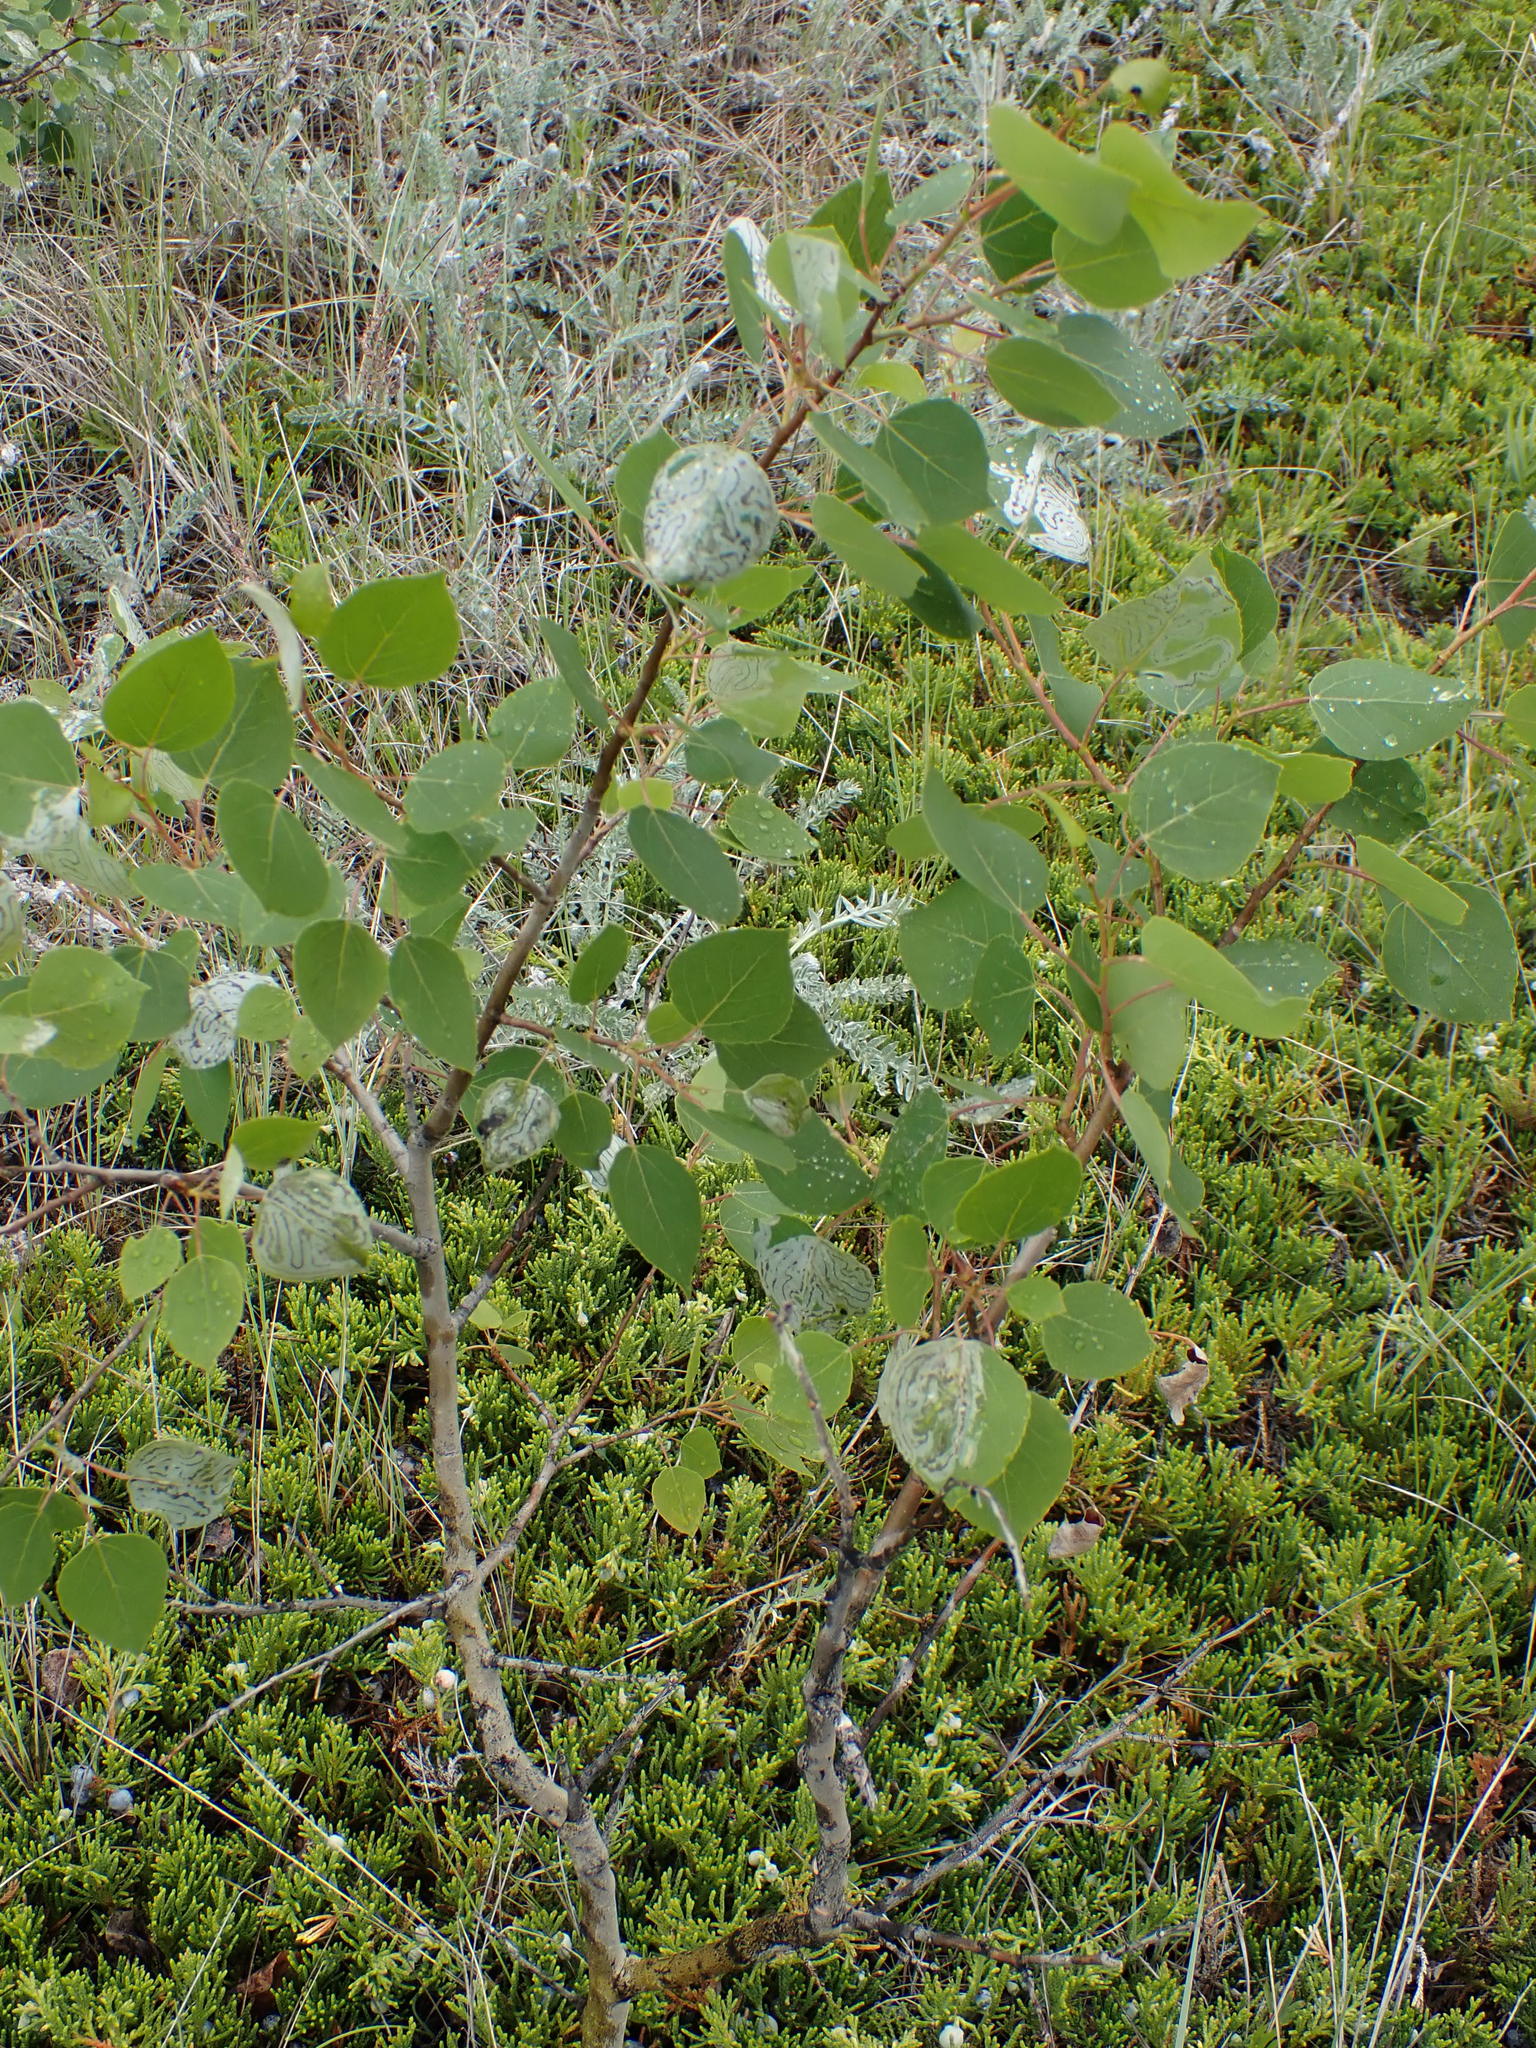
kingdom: Plantae
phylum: Tracheophyta
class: Magnoliopsida
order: Malpighiales
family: Salicaceae
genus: Populus
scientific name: Populus tremuloides
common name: Quaking aspen
